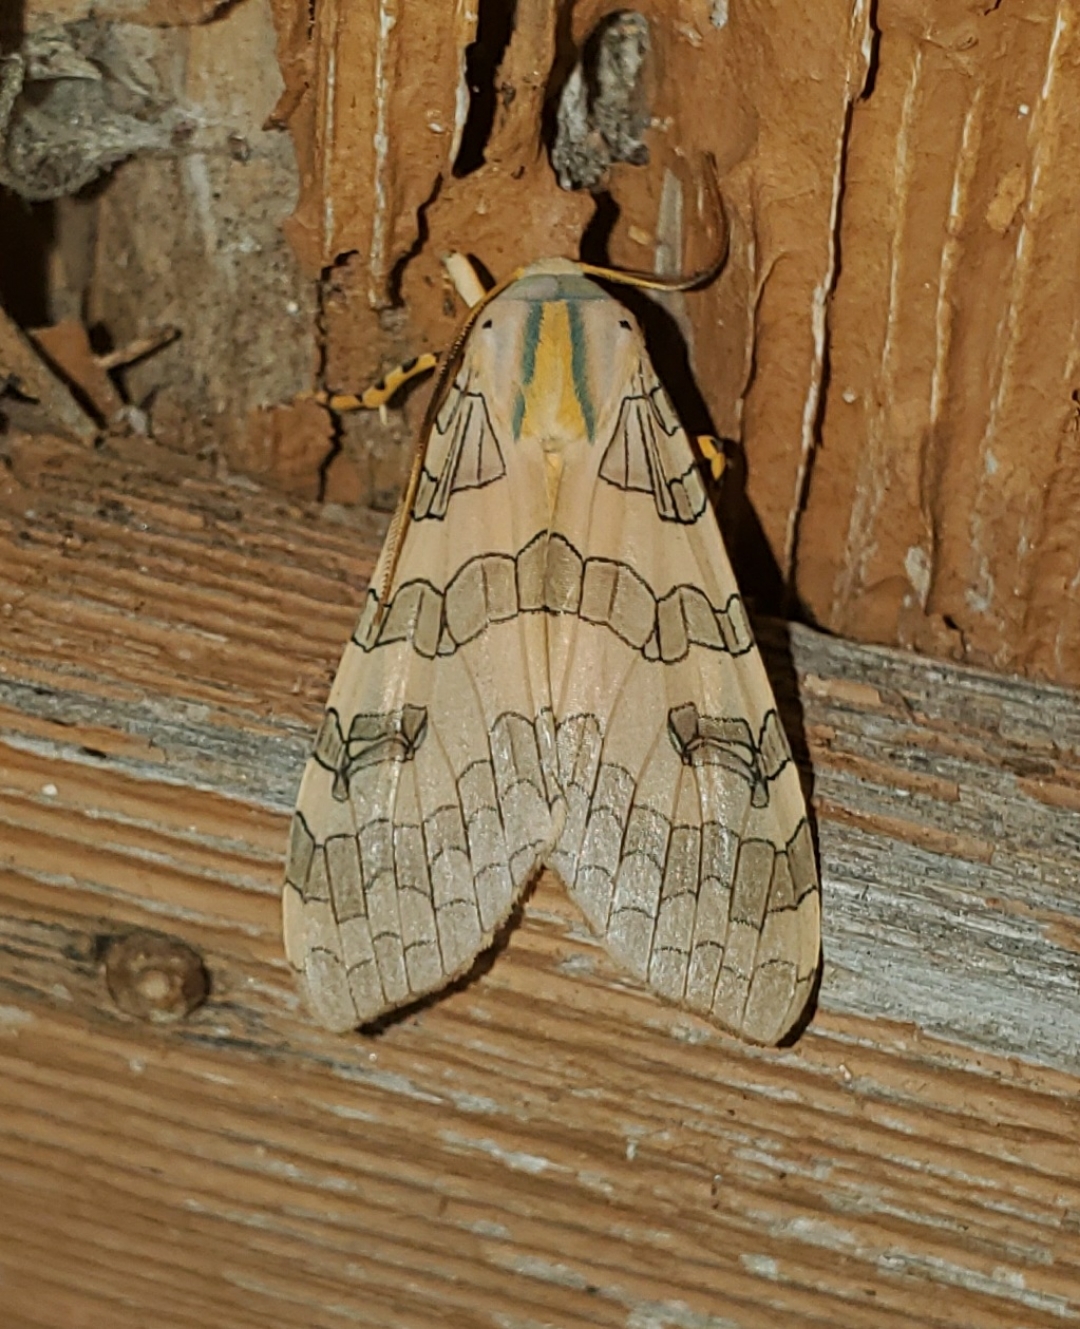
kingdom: Animalia
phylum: Arthropoda
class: Insecta
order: Lepidoptera
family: Erebidae
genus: Halysidota
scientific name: Halysidota tessellaris
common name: Banded tussock moth
